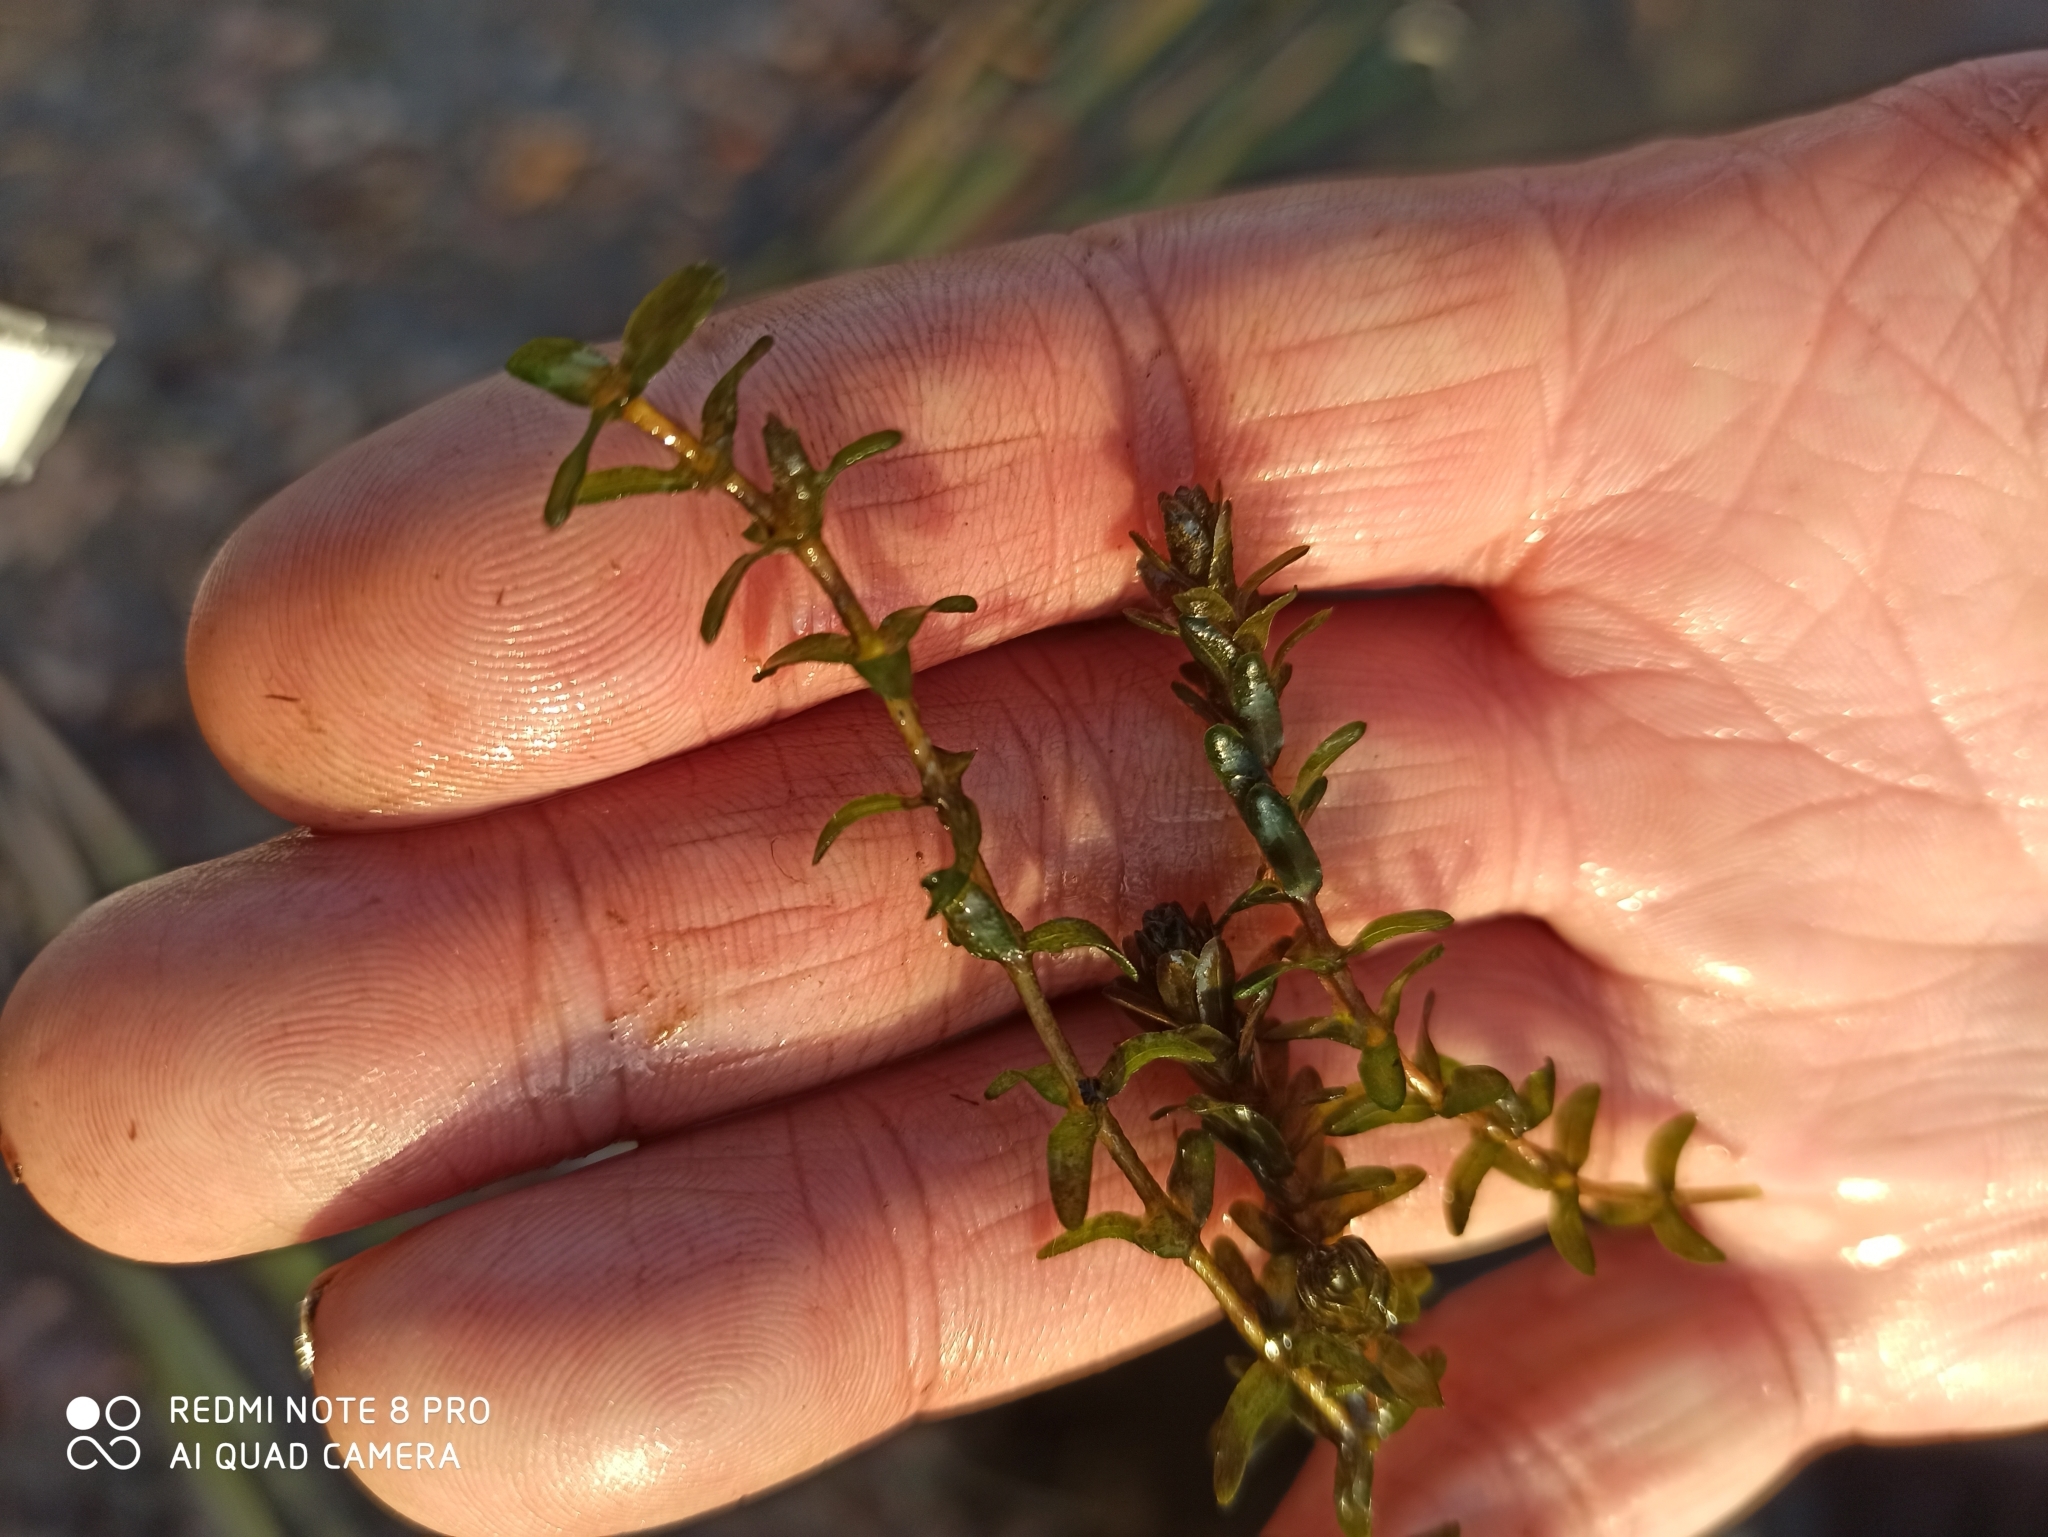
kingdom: Plantae
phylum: Tracheophyta
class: Liliopsida
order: Alismatales
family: Hydrocharitaceae
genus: Elodea
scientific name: Elodea canadensis
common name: Canadian waterweed
